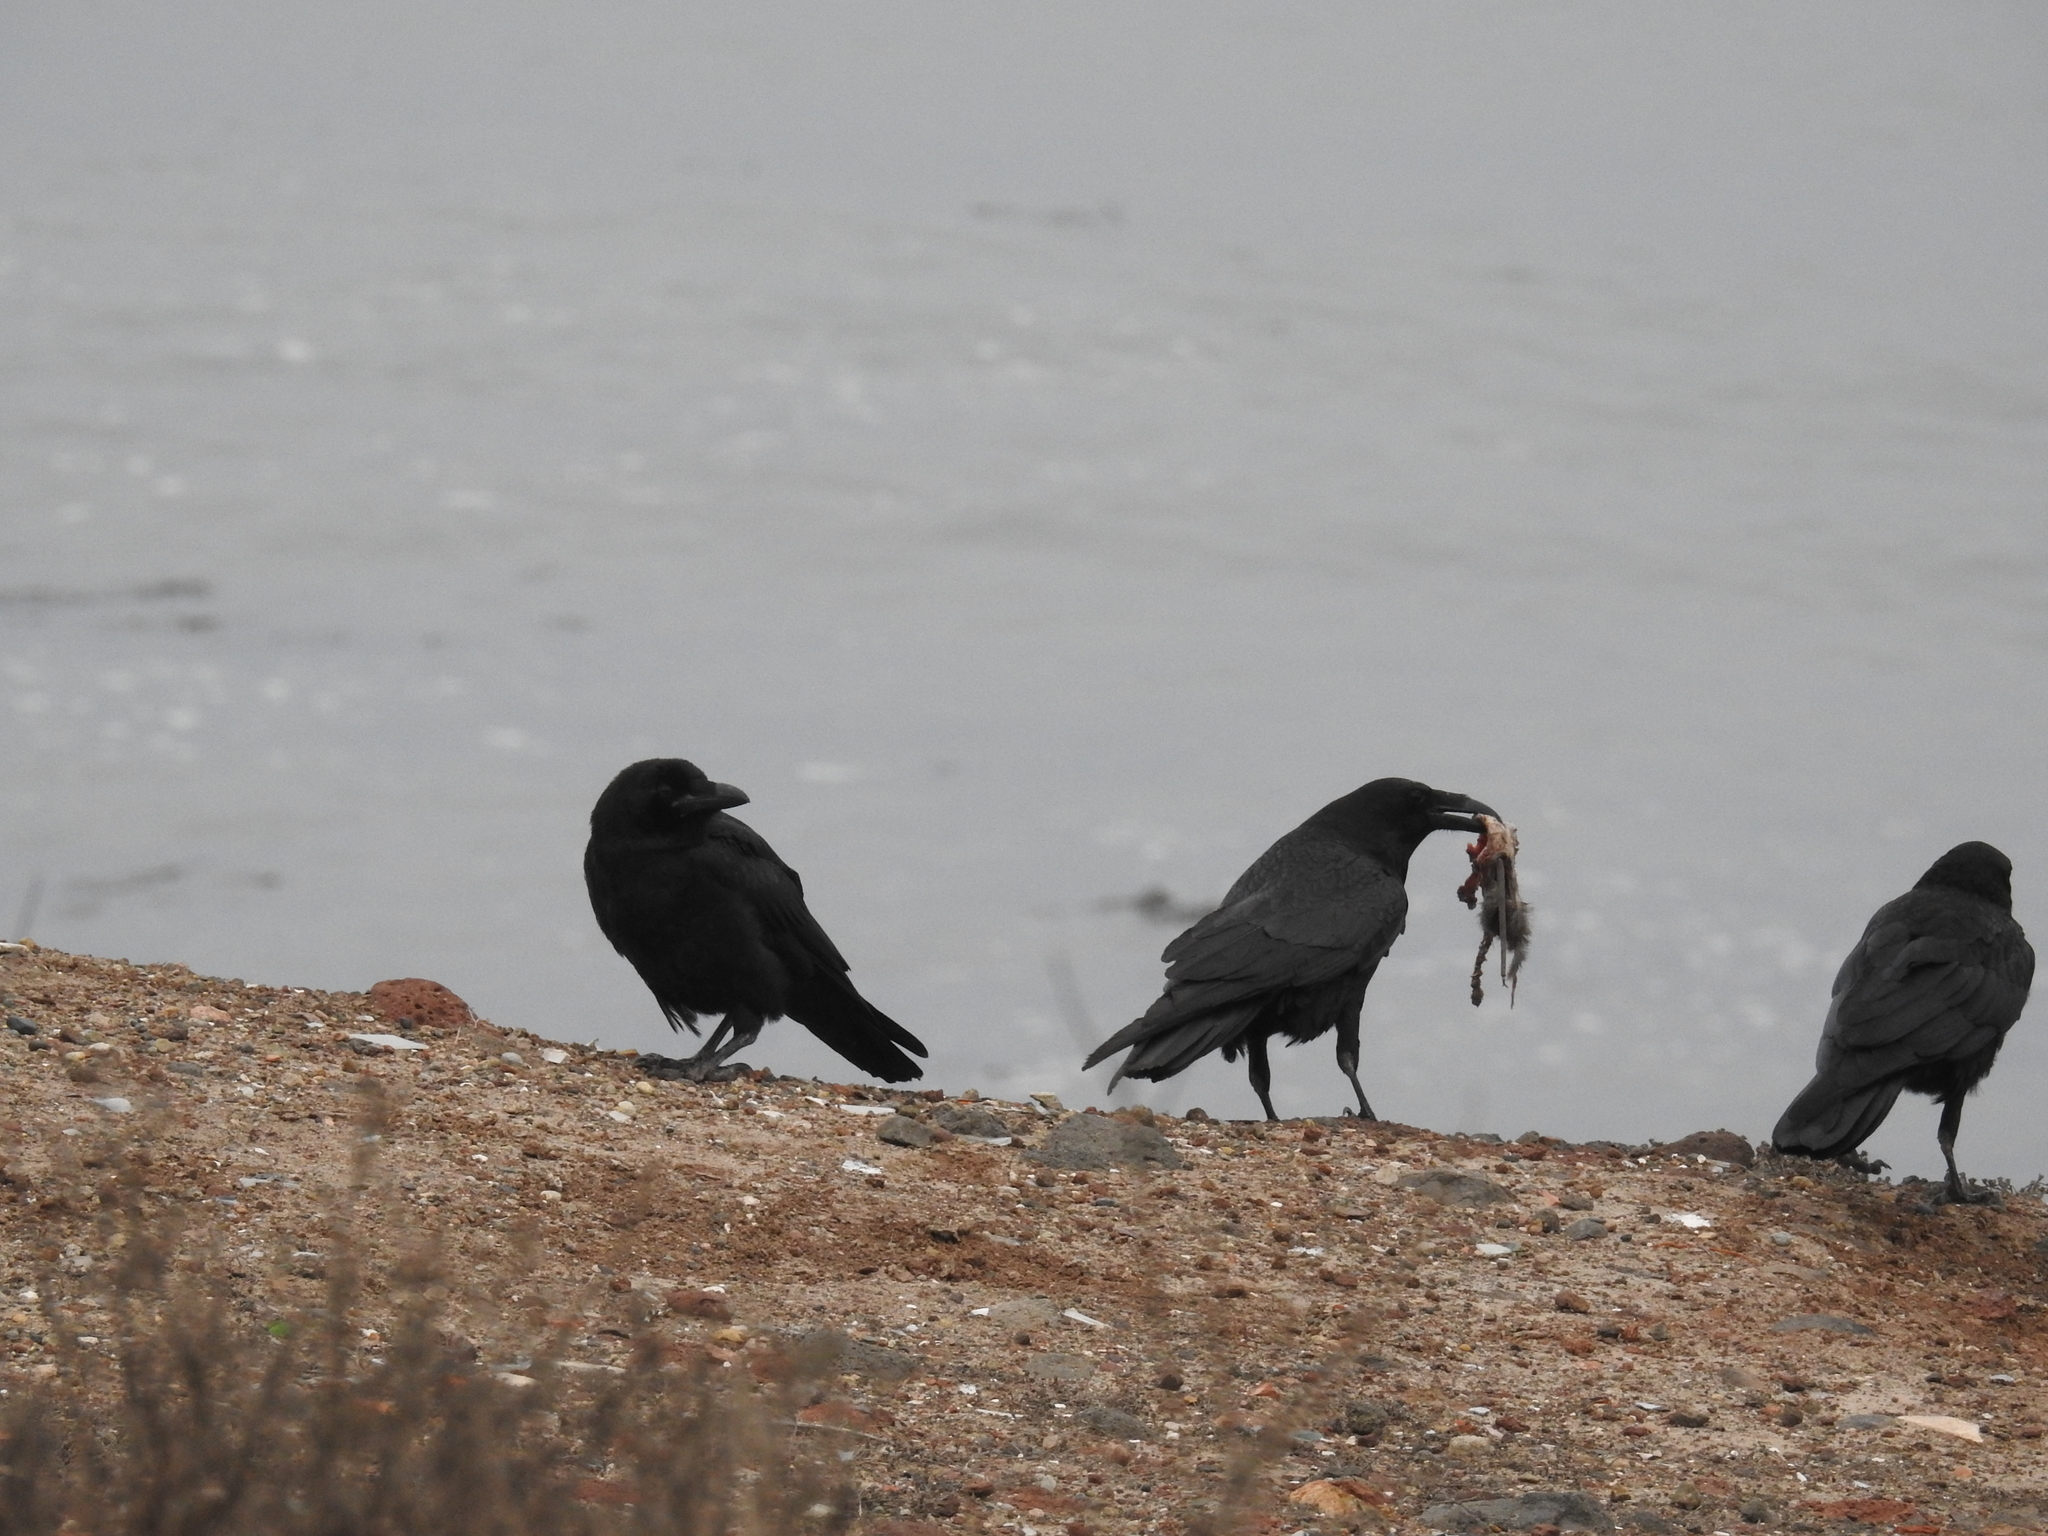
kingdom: Animalia
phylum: Chordata
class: Aves
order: Passeriformes
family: Corvidae
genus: Corvus
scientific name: Corvus corax
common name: Common raven
